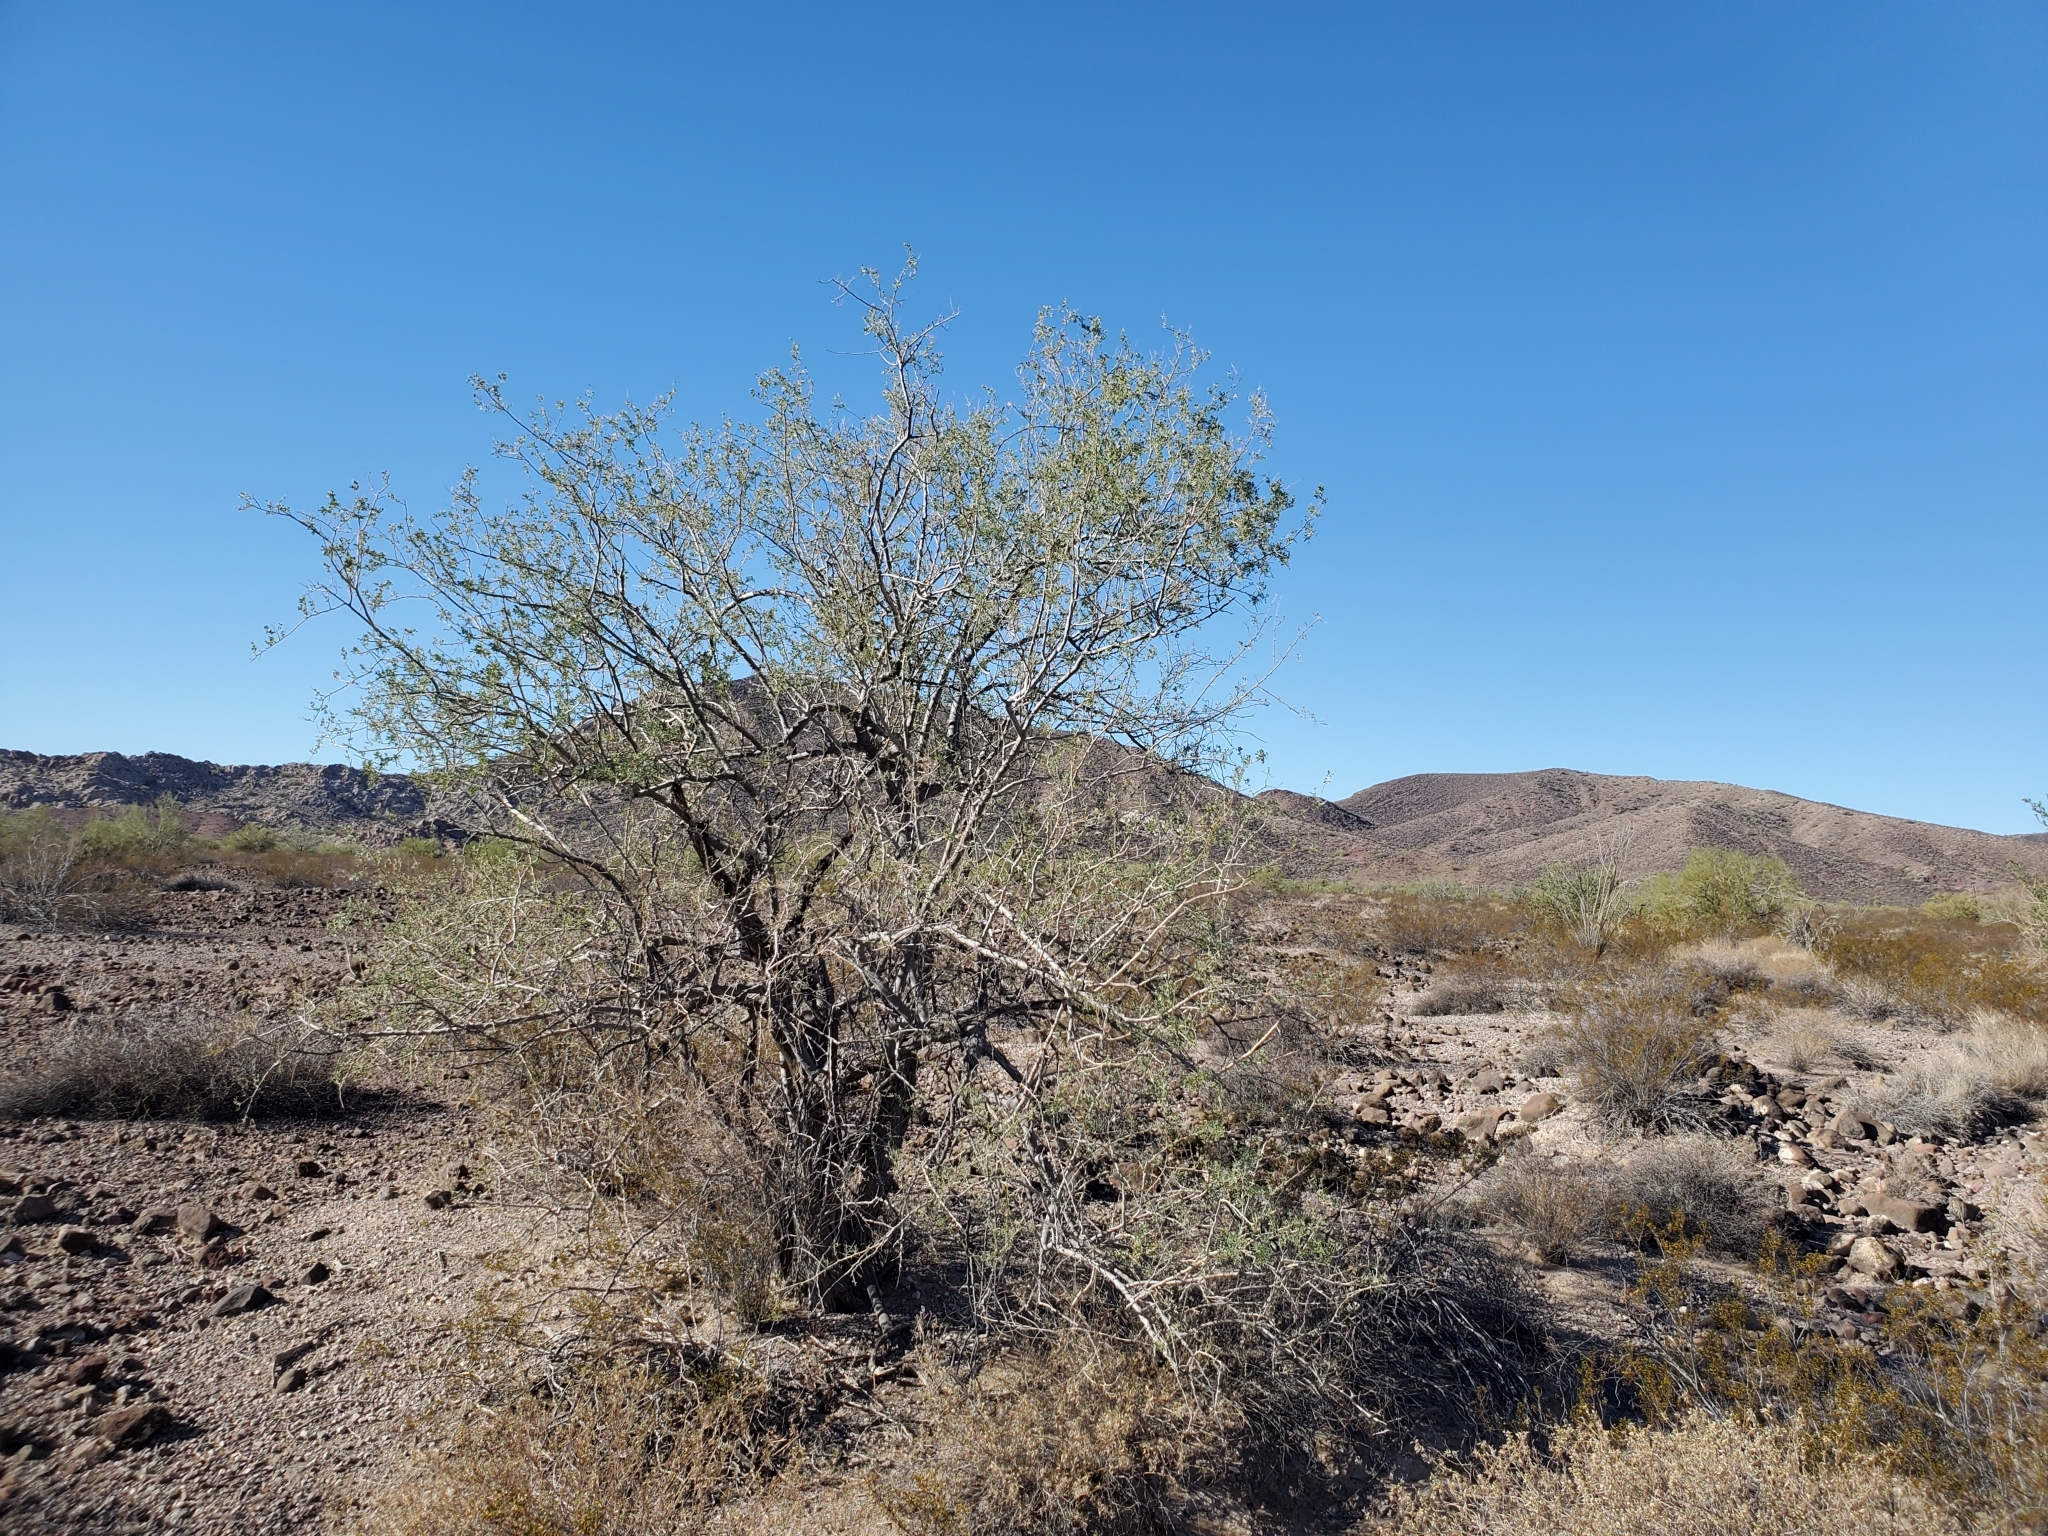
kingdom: Plantae
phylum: Tracheophyta
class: Magnoliopsida
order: Fabales
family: Fabaceae
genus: Olneya
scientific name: Olneya tesota
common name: Desert ironwood
